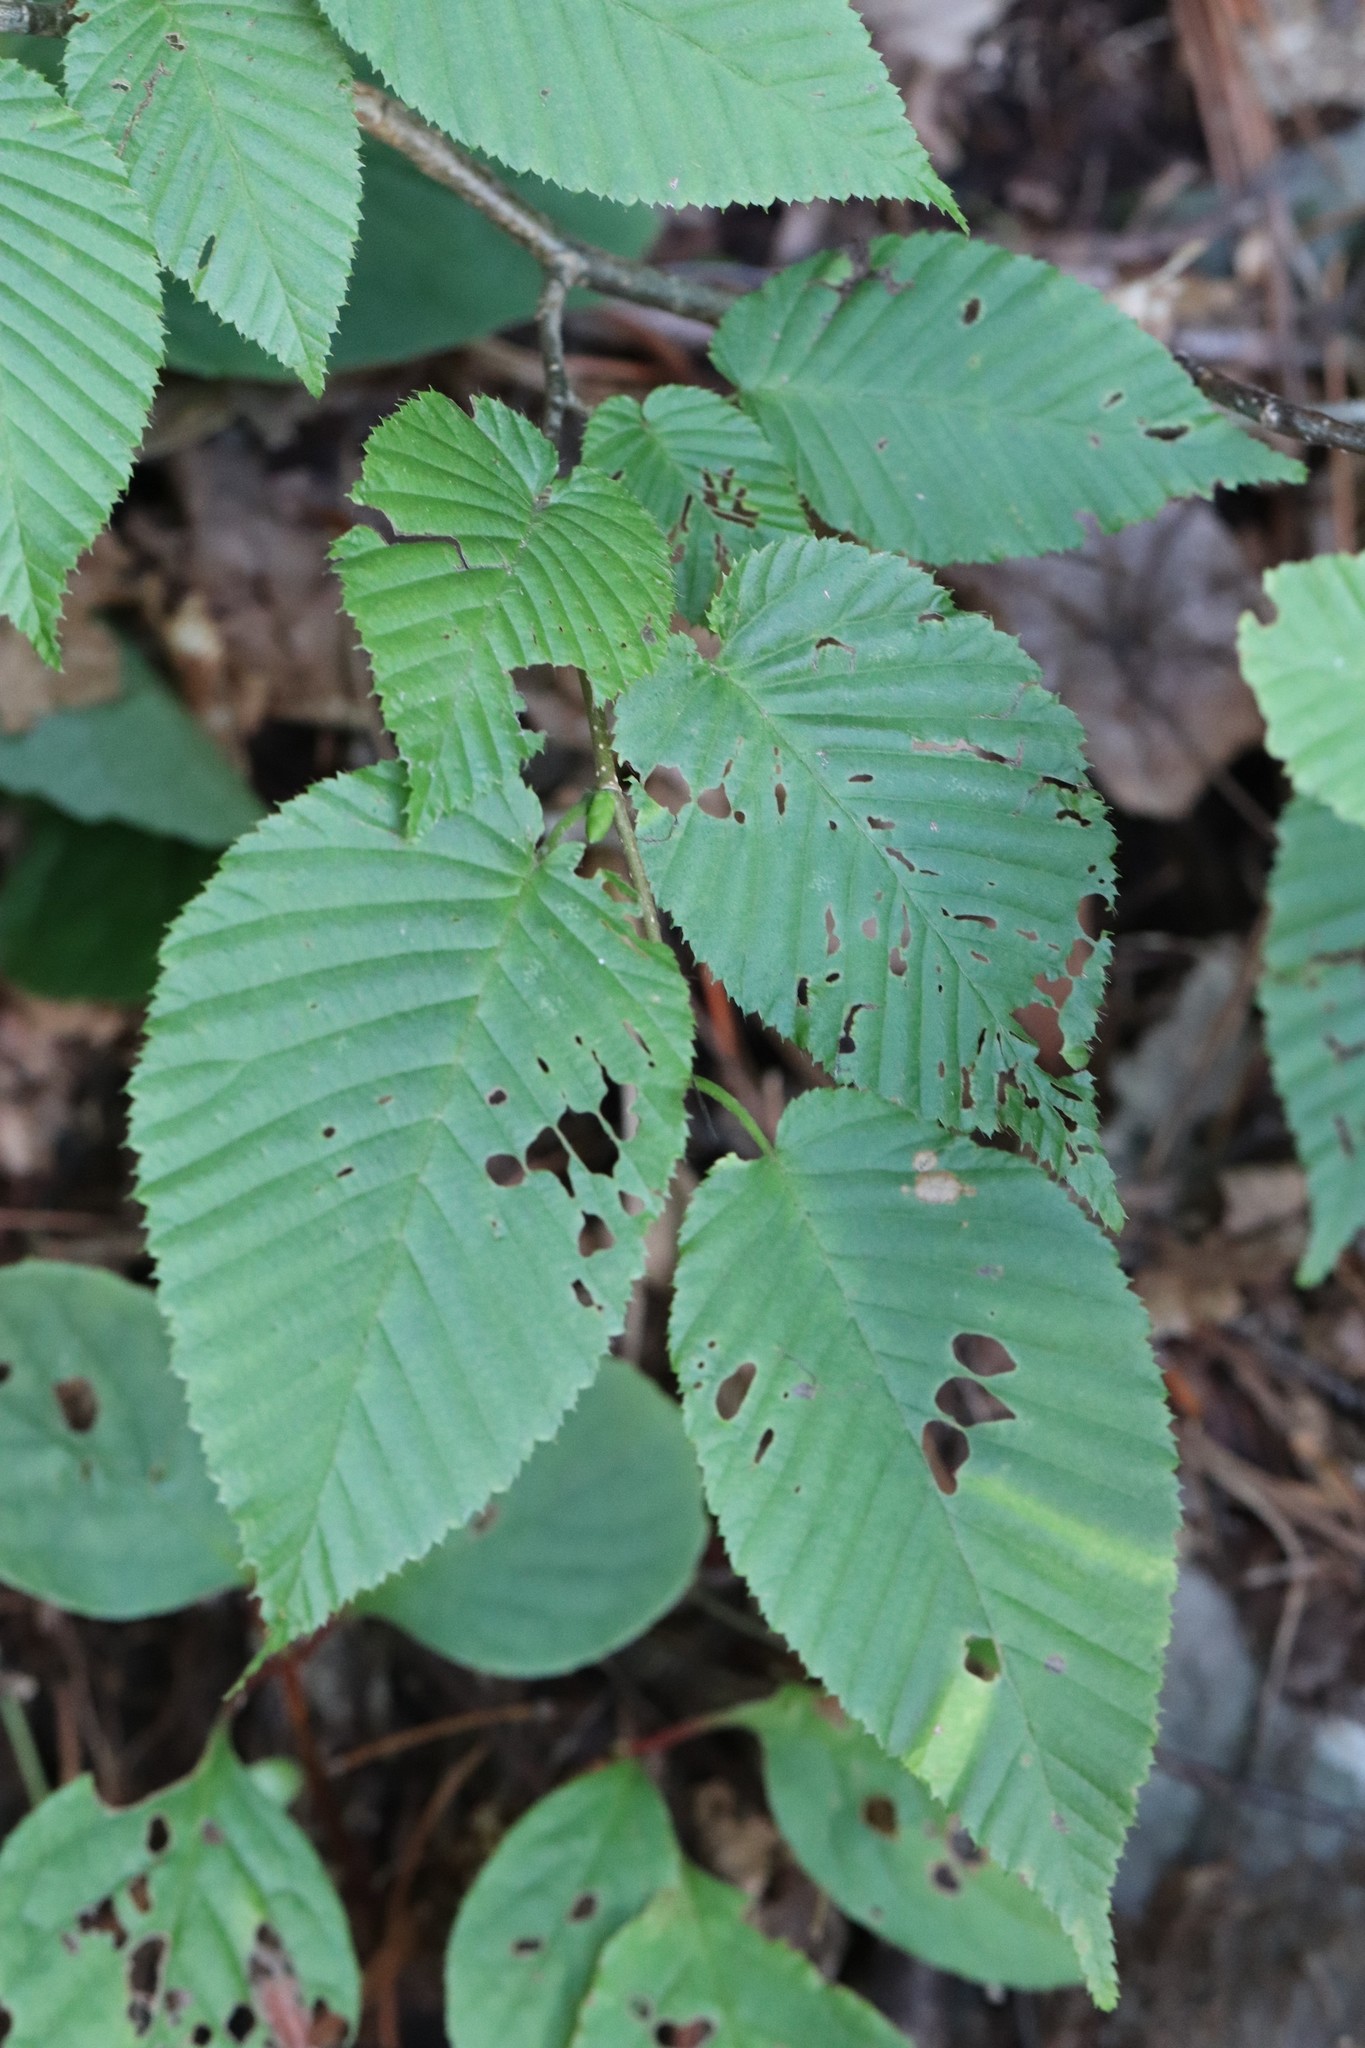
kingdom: Plantae
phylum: Tracheophyta
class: Magnoliopsida
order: Fagales
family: Betulaceae
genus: Carpinus
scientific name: Carpinus cordata
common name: Sawa hornbeam
